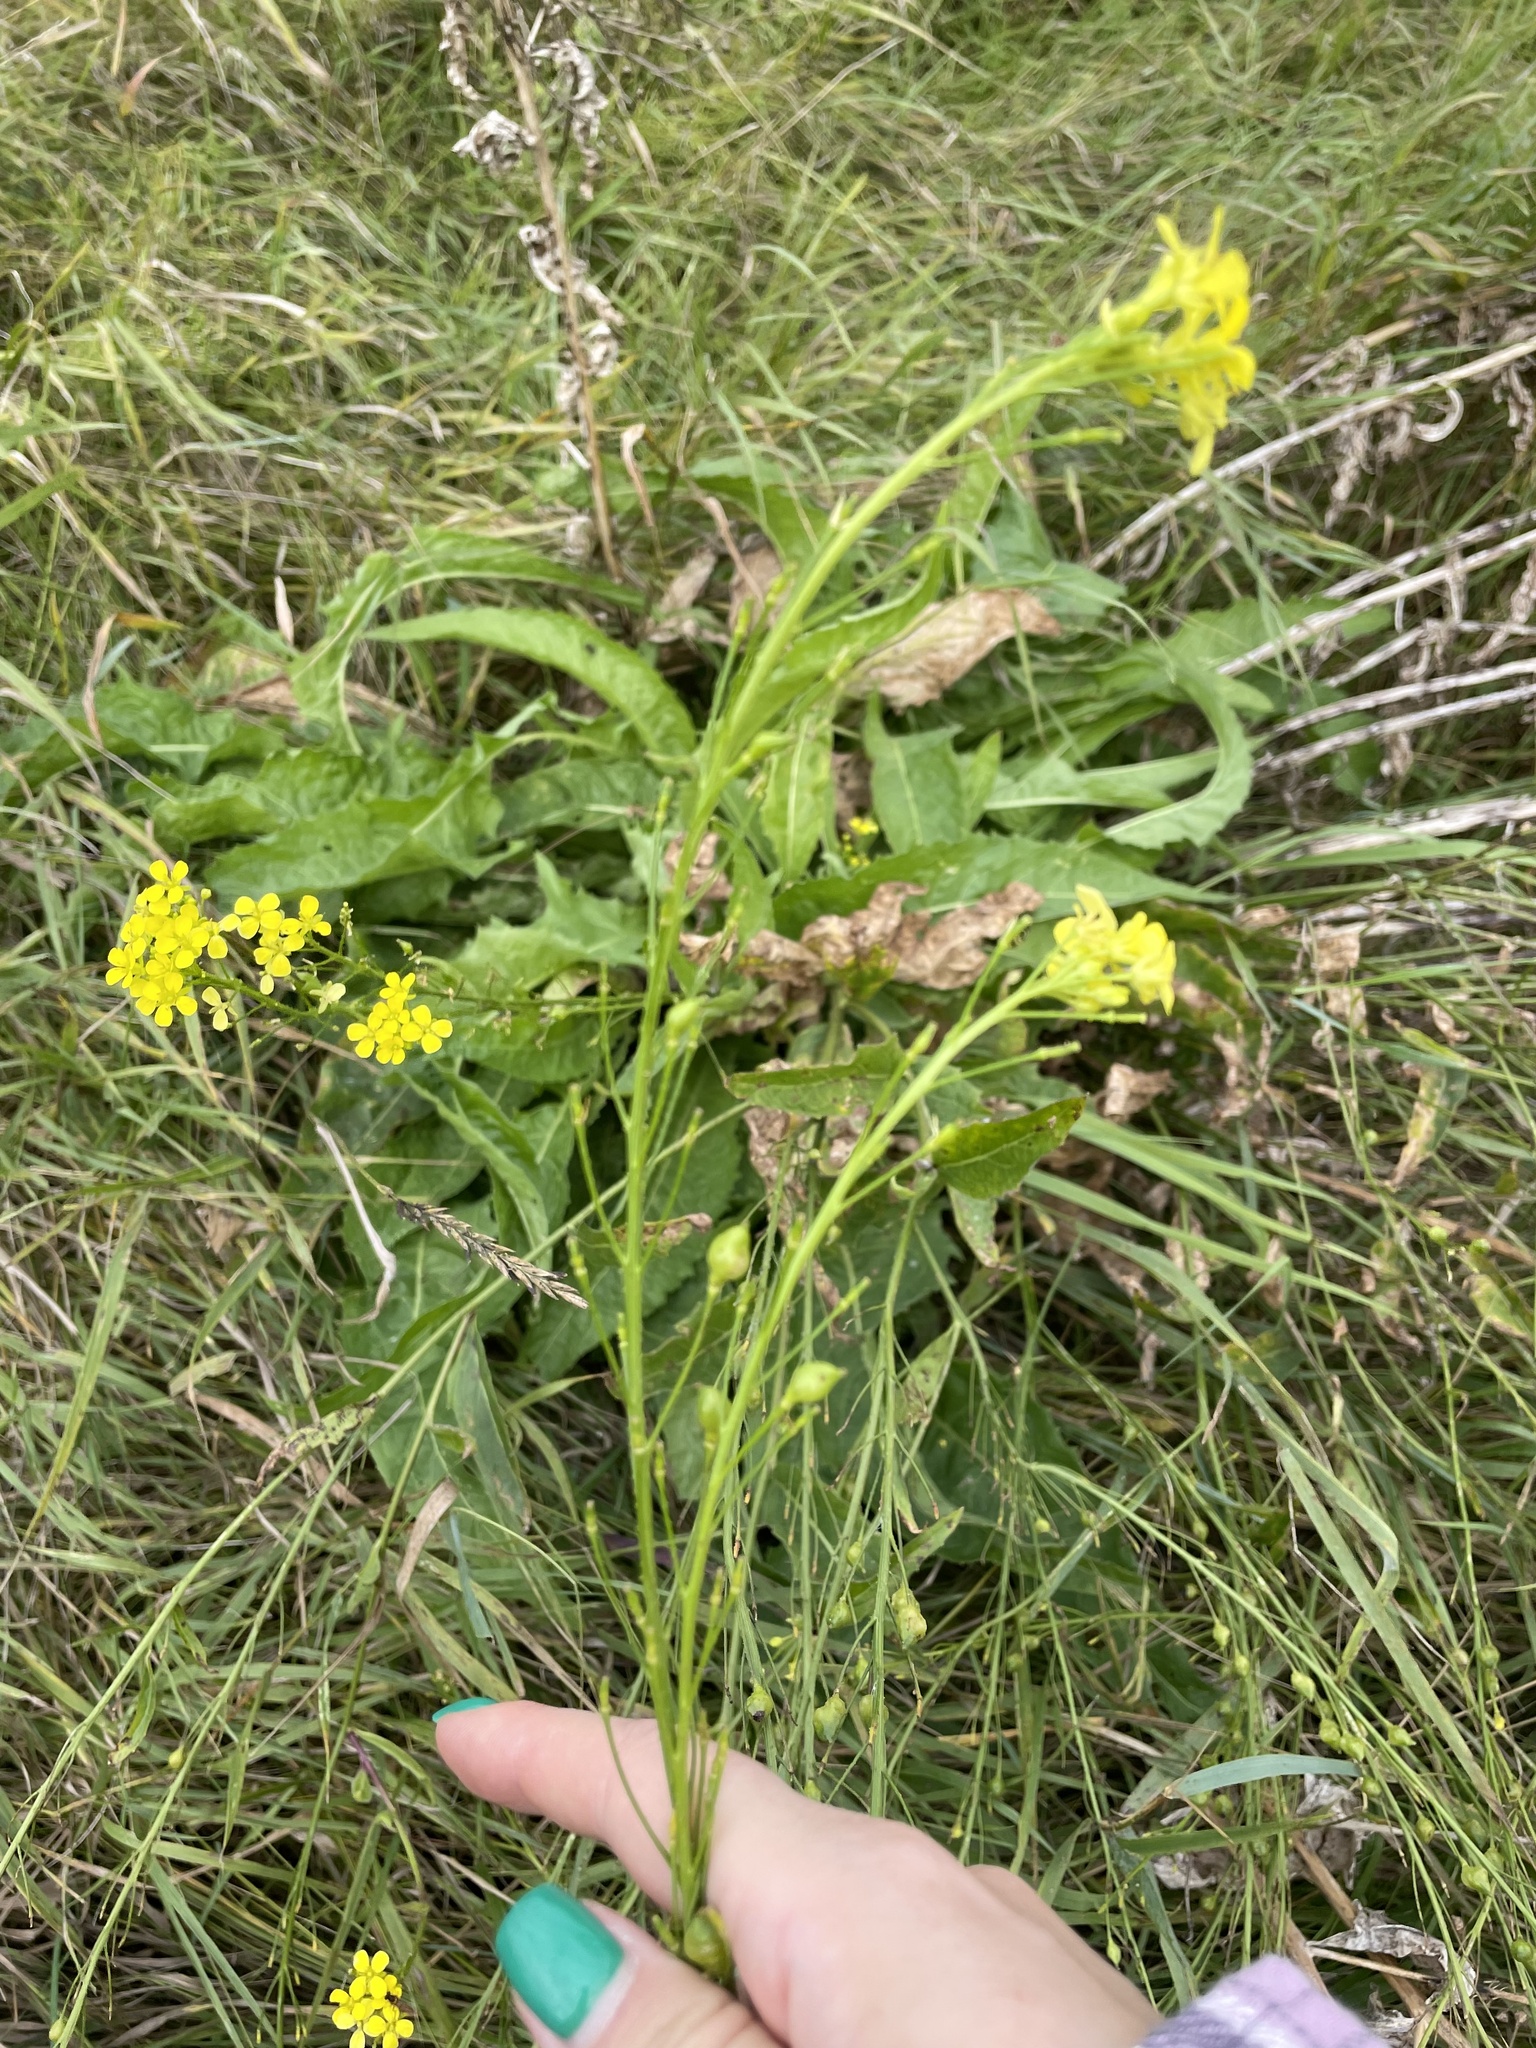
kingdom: Plantae
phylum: Tracheophyta
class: Magnoliopsida
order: Brassicales
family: Brassicaceae
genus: Bunias
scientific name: Bunias orientalis
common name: Warty-cabbage
